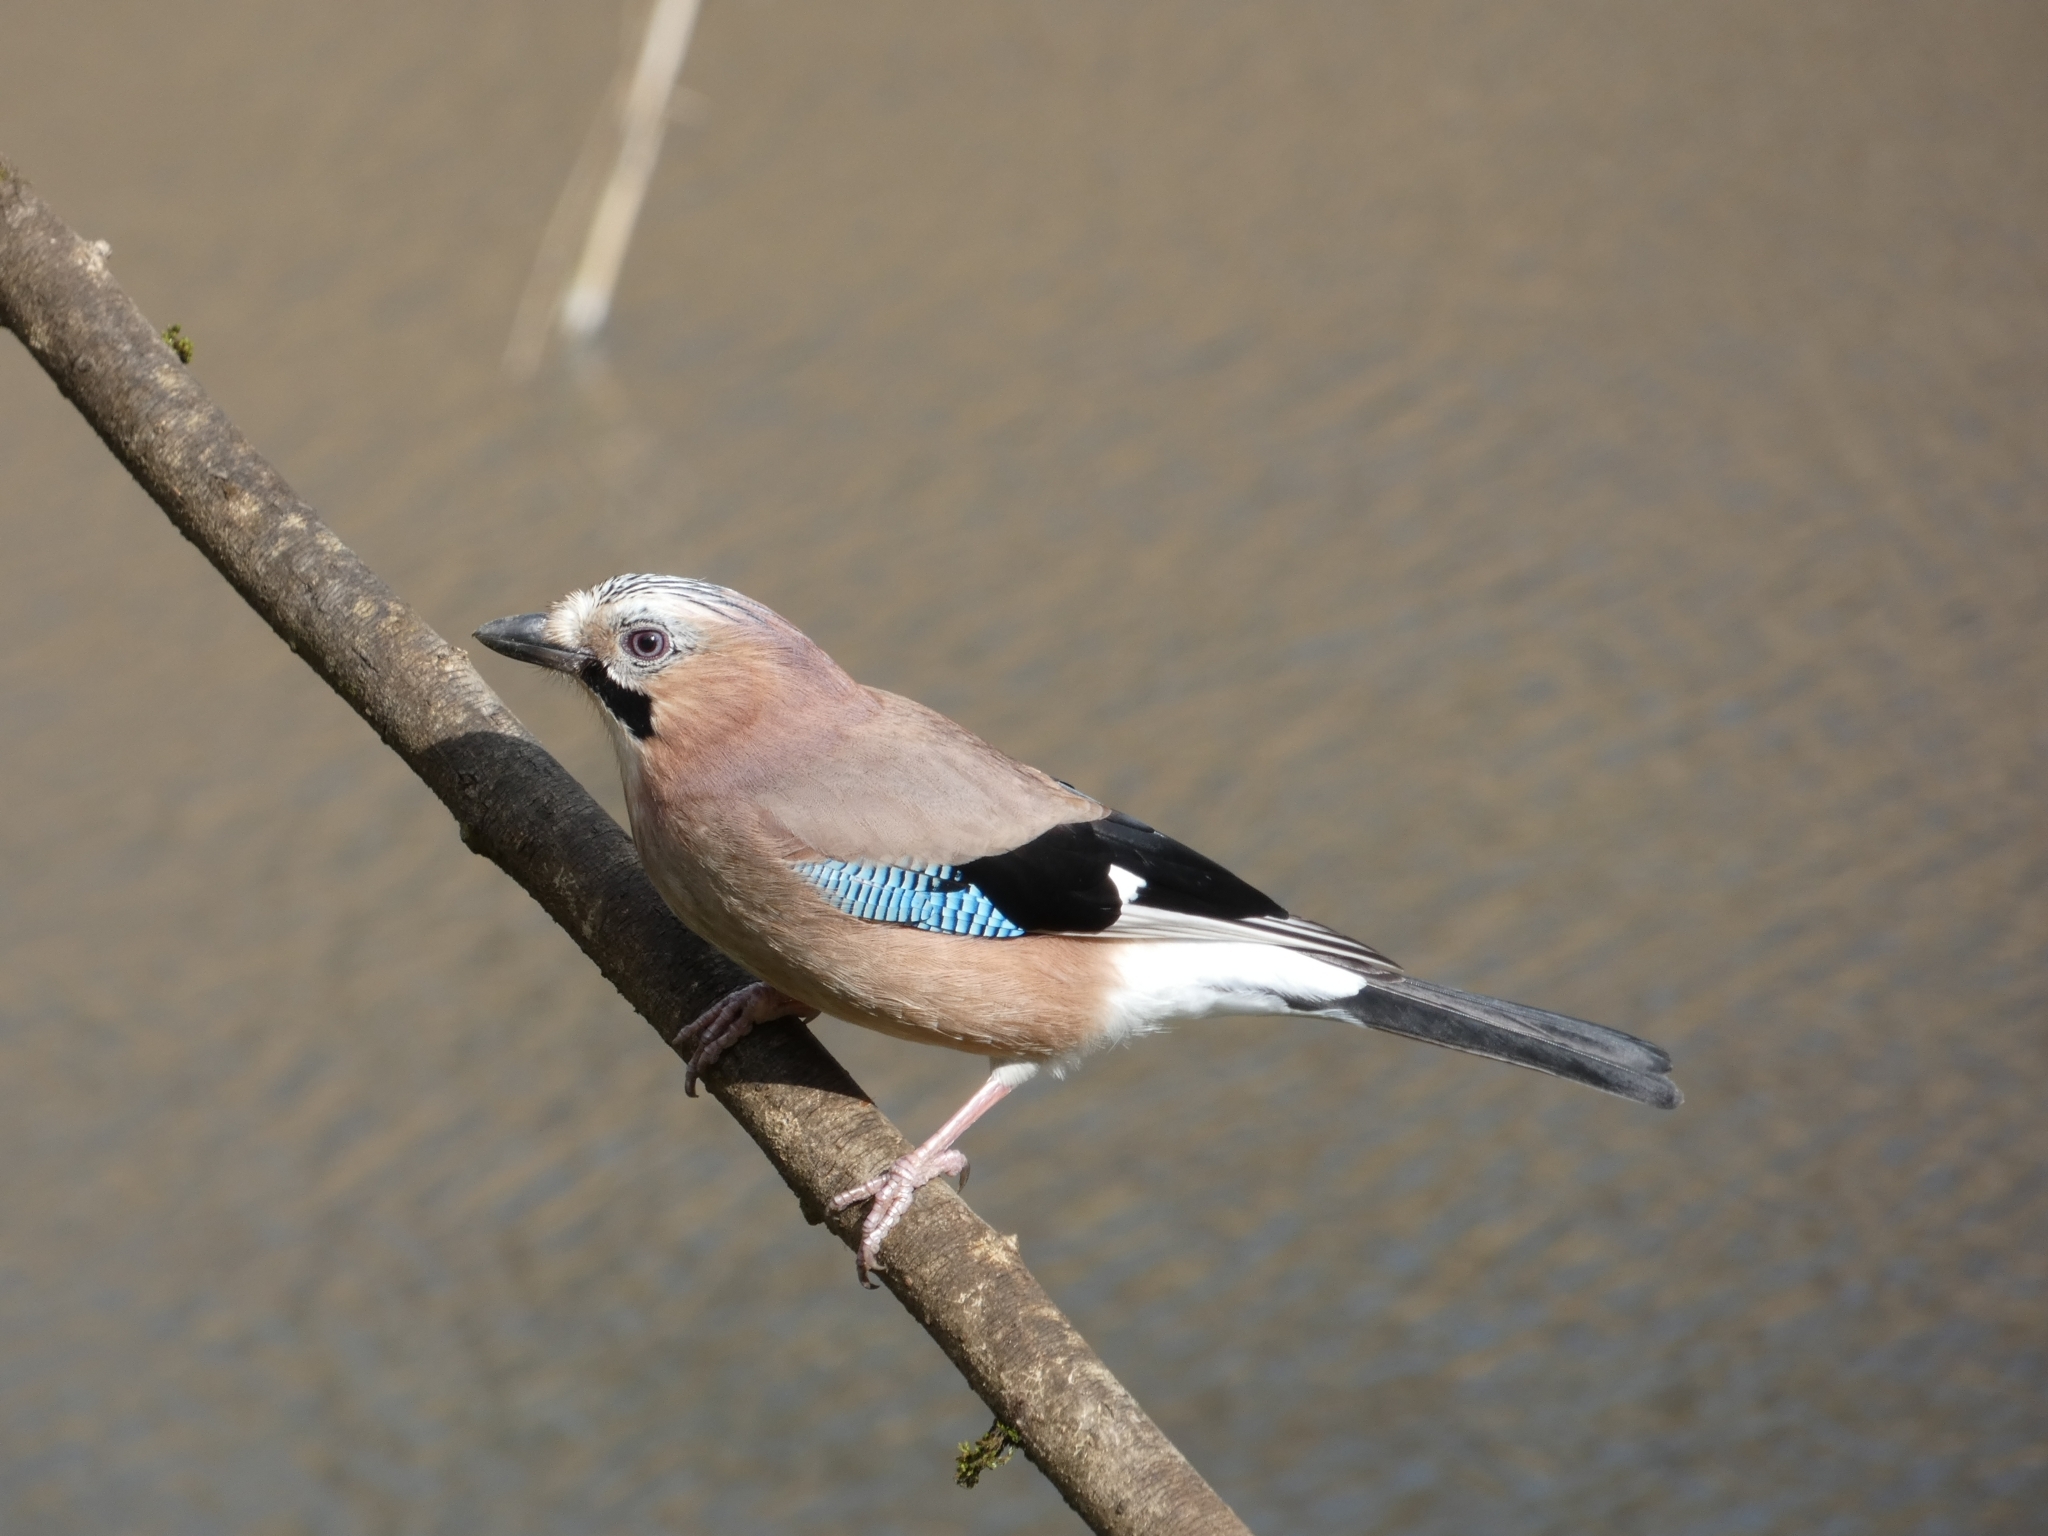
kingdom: Animalia
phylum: Chordata
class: Aves
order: Passeriformes
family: Corvidae
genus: Garrulus
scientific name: Garrulus glandarius
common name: Eurasian jay
